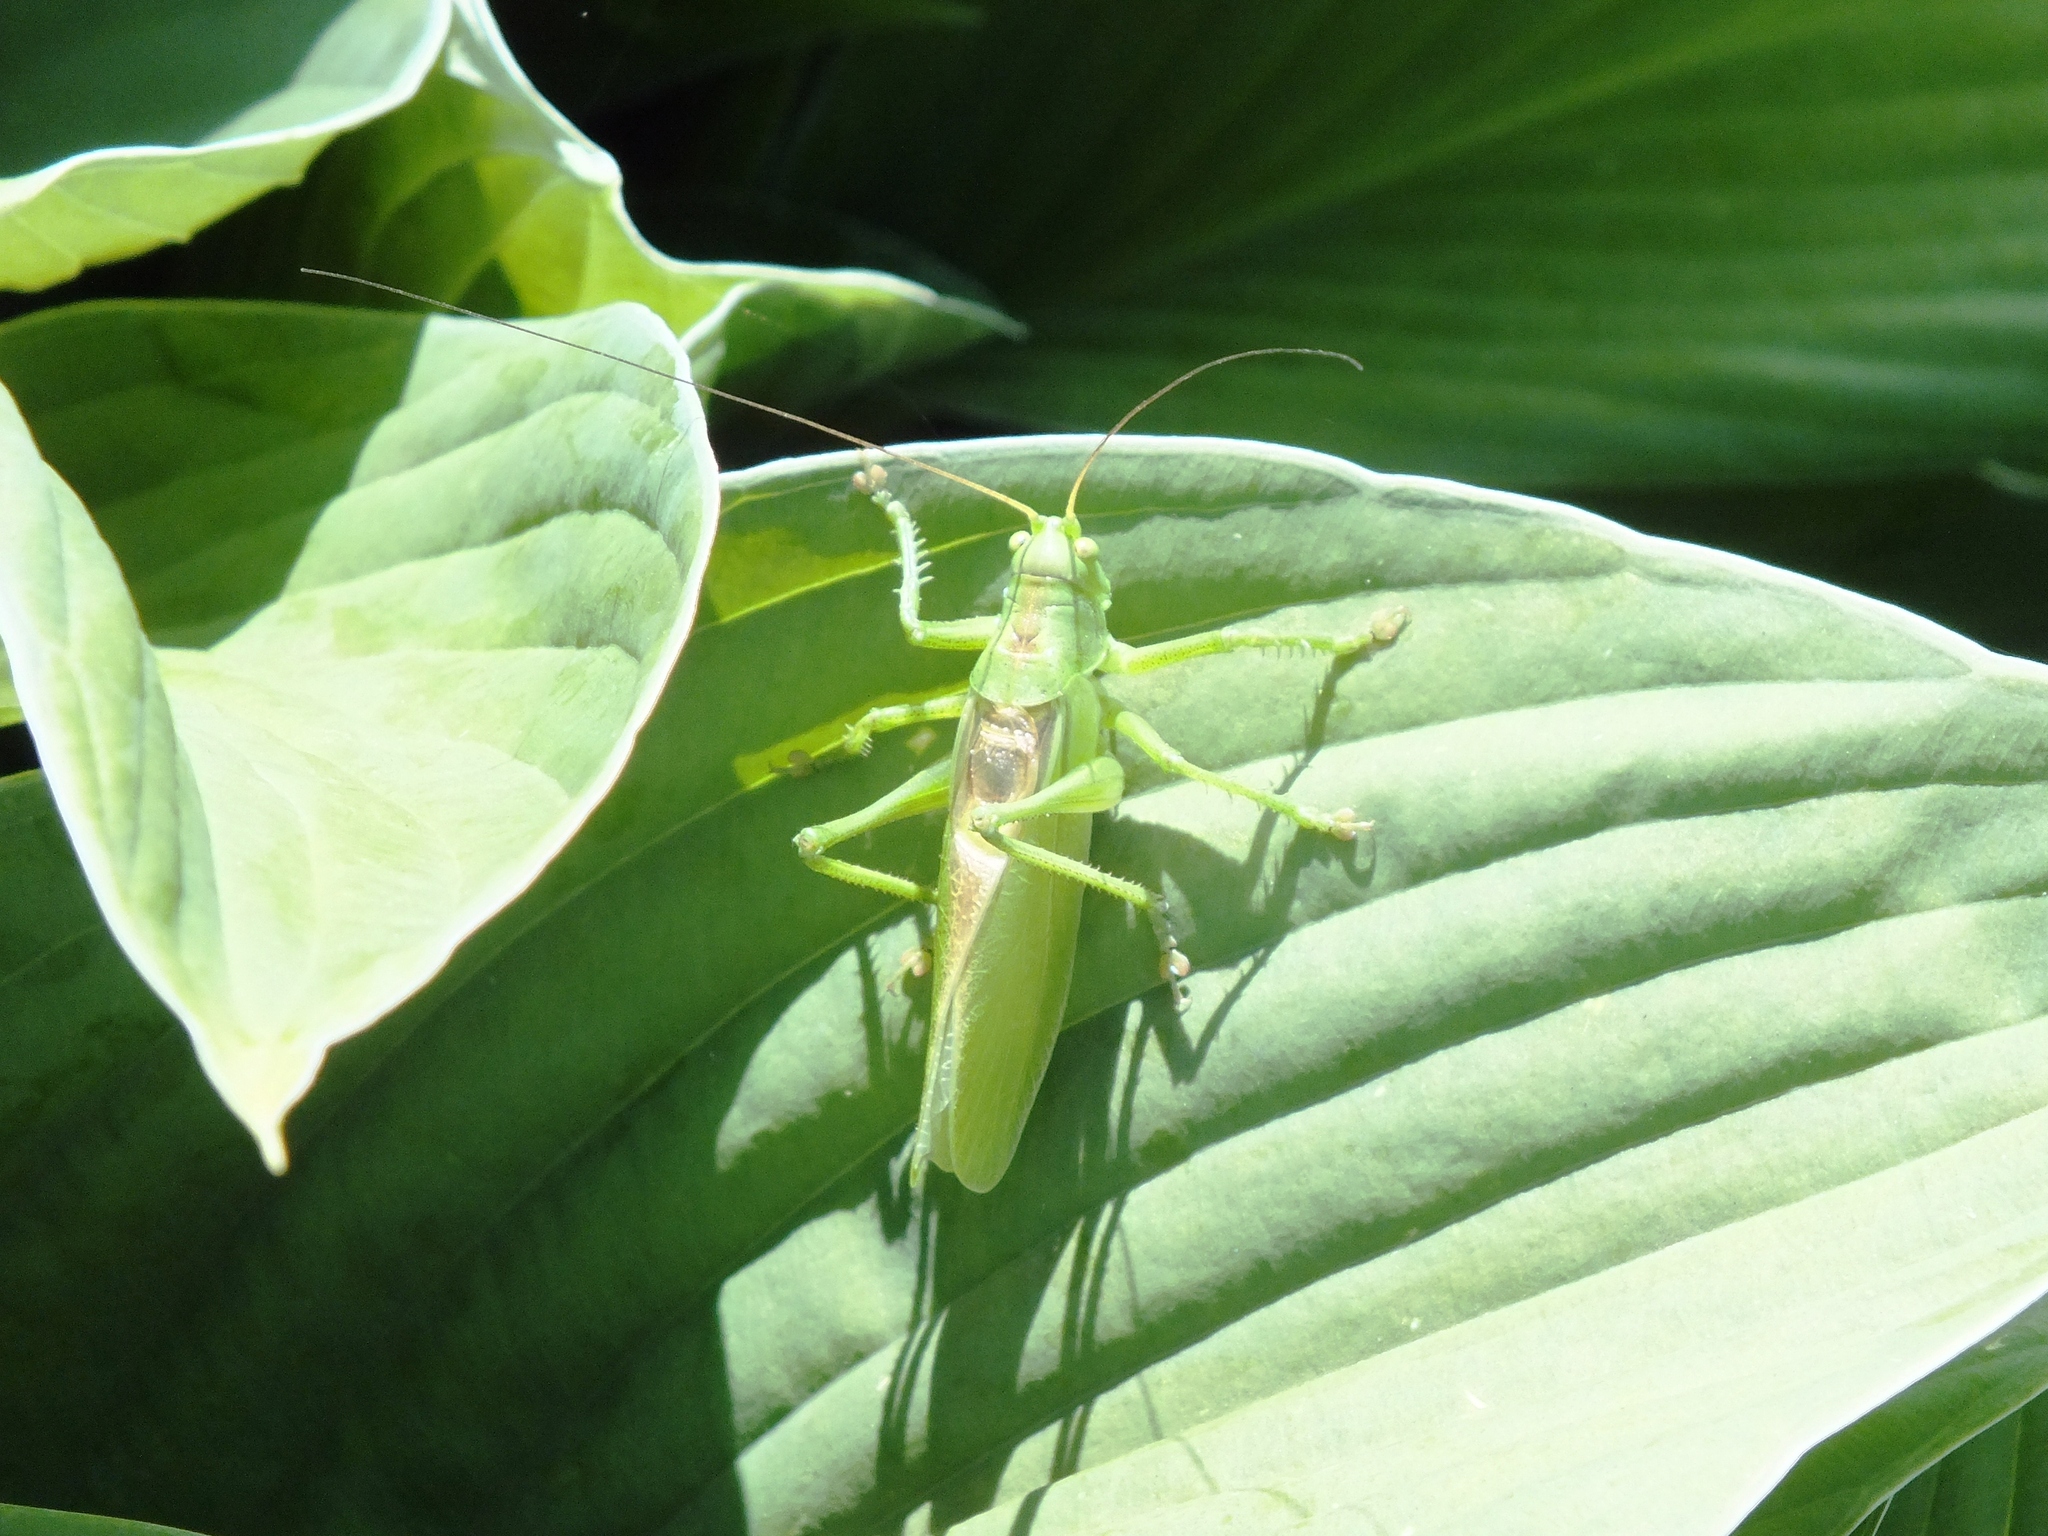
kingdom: Animalia
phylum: Arthropoda
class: Insecta
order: Orthoptera
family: Tettigoniidae
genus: Tettigonia
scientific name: Tettigonia cantans
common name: Upland green bush-cricket
